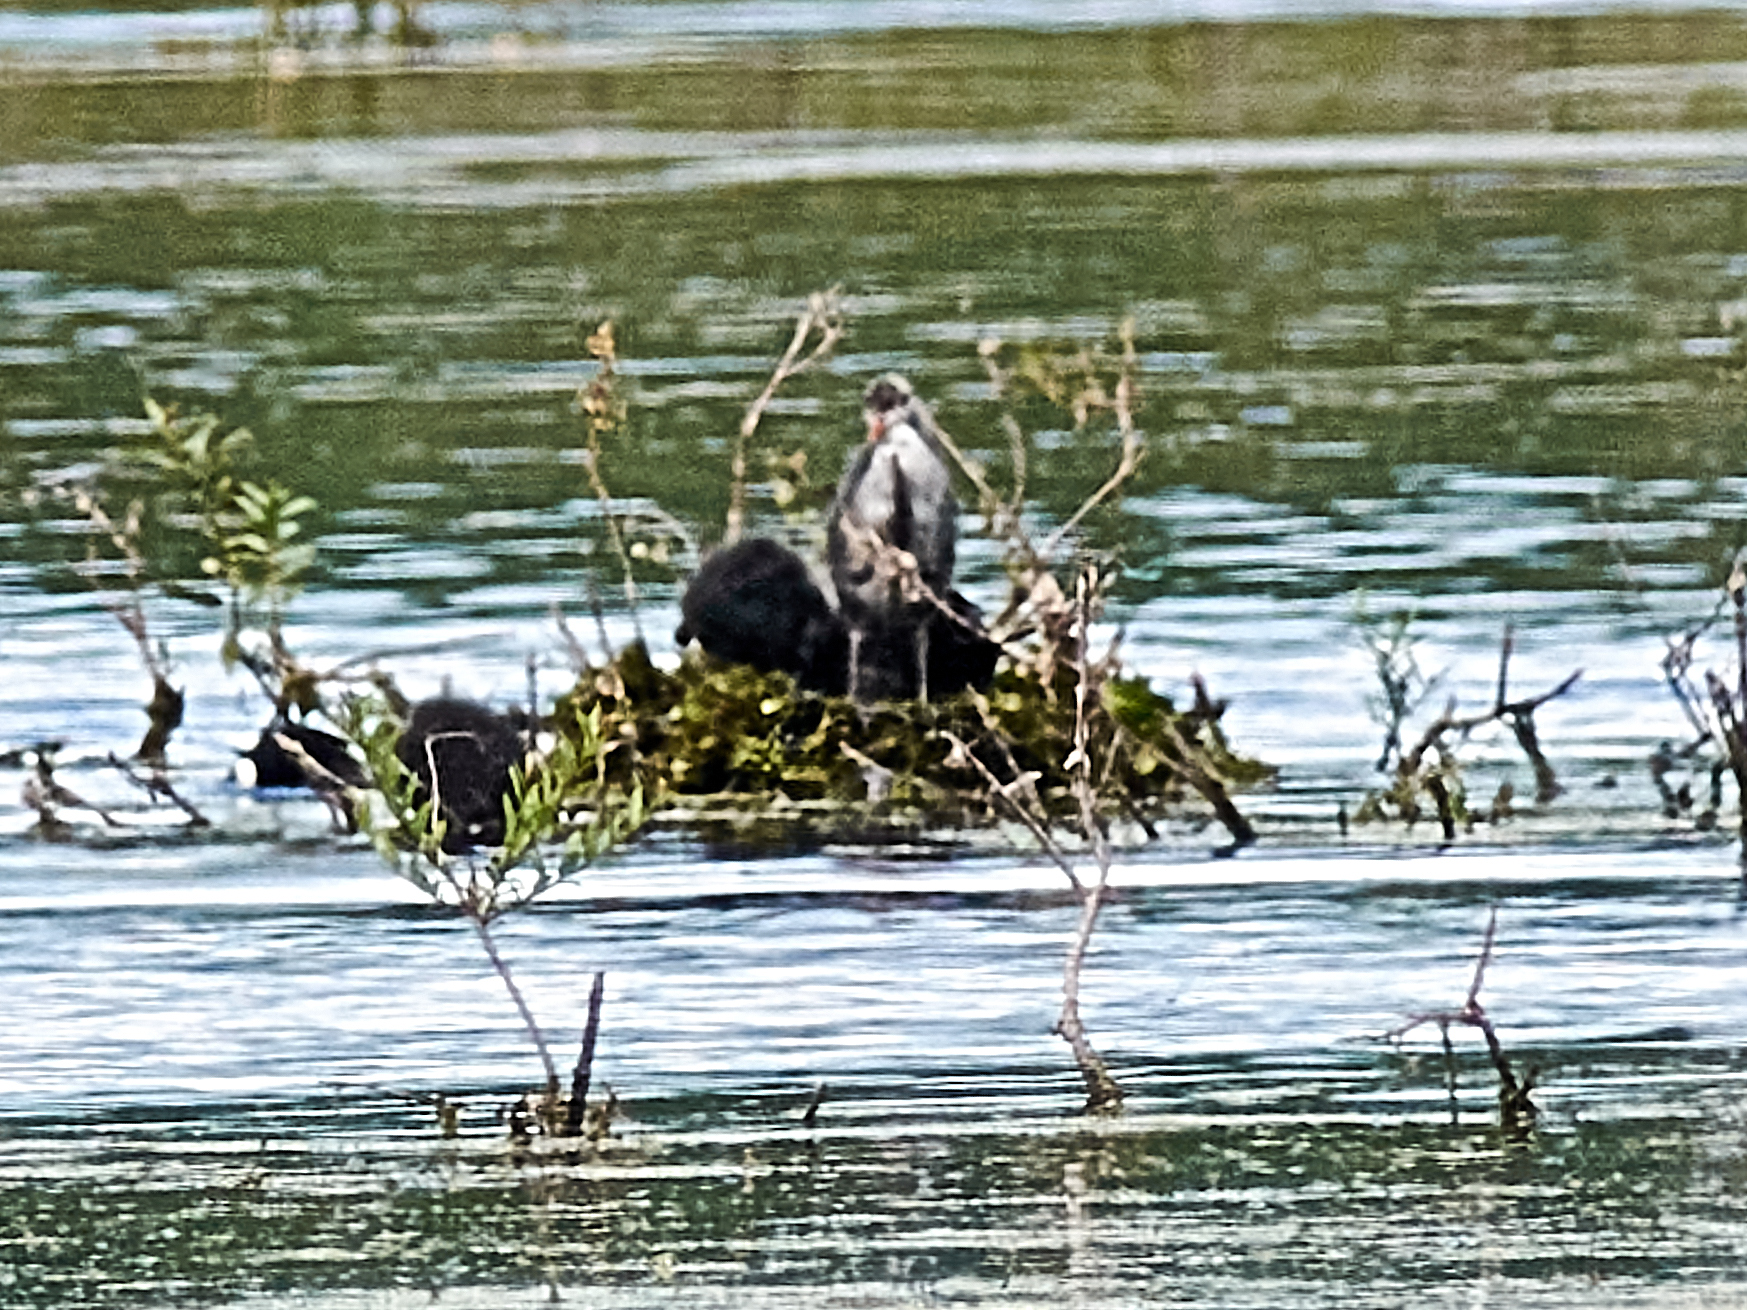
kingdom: Animalia
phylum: Chordata
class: Aves
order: Gruiformes
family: Rallidae
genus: Fulica
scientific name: Fulica atra
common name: Eurasian coot
